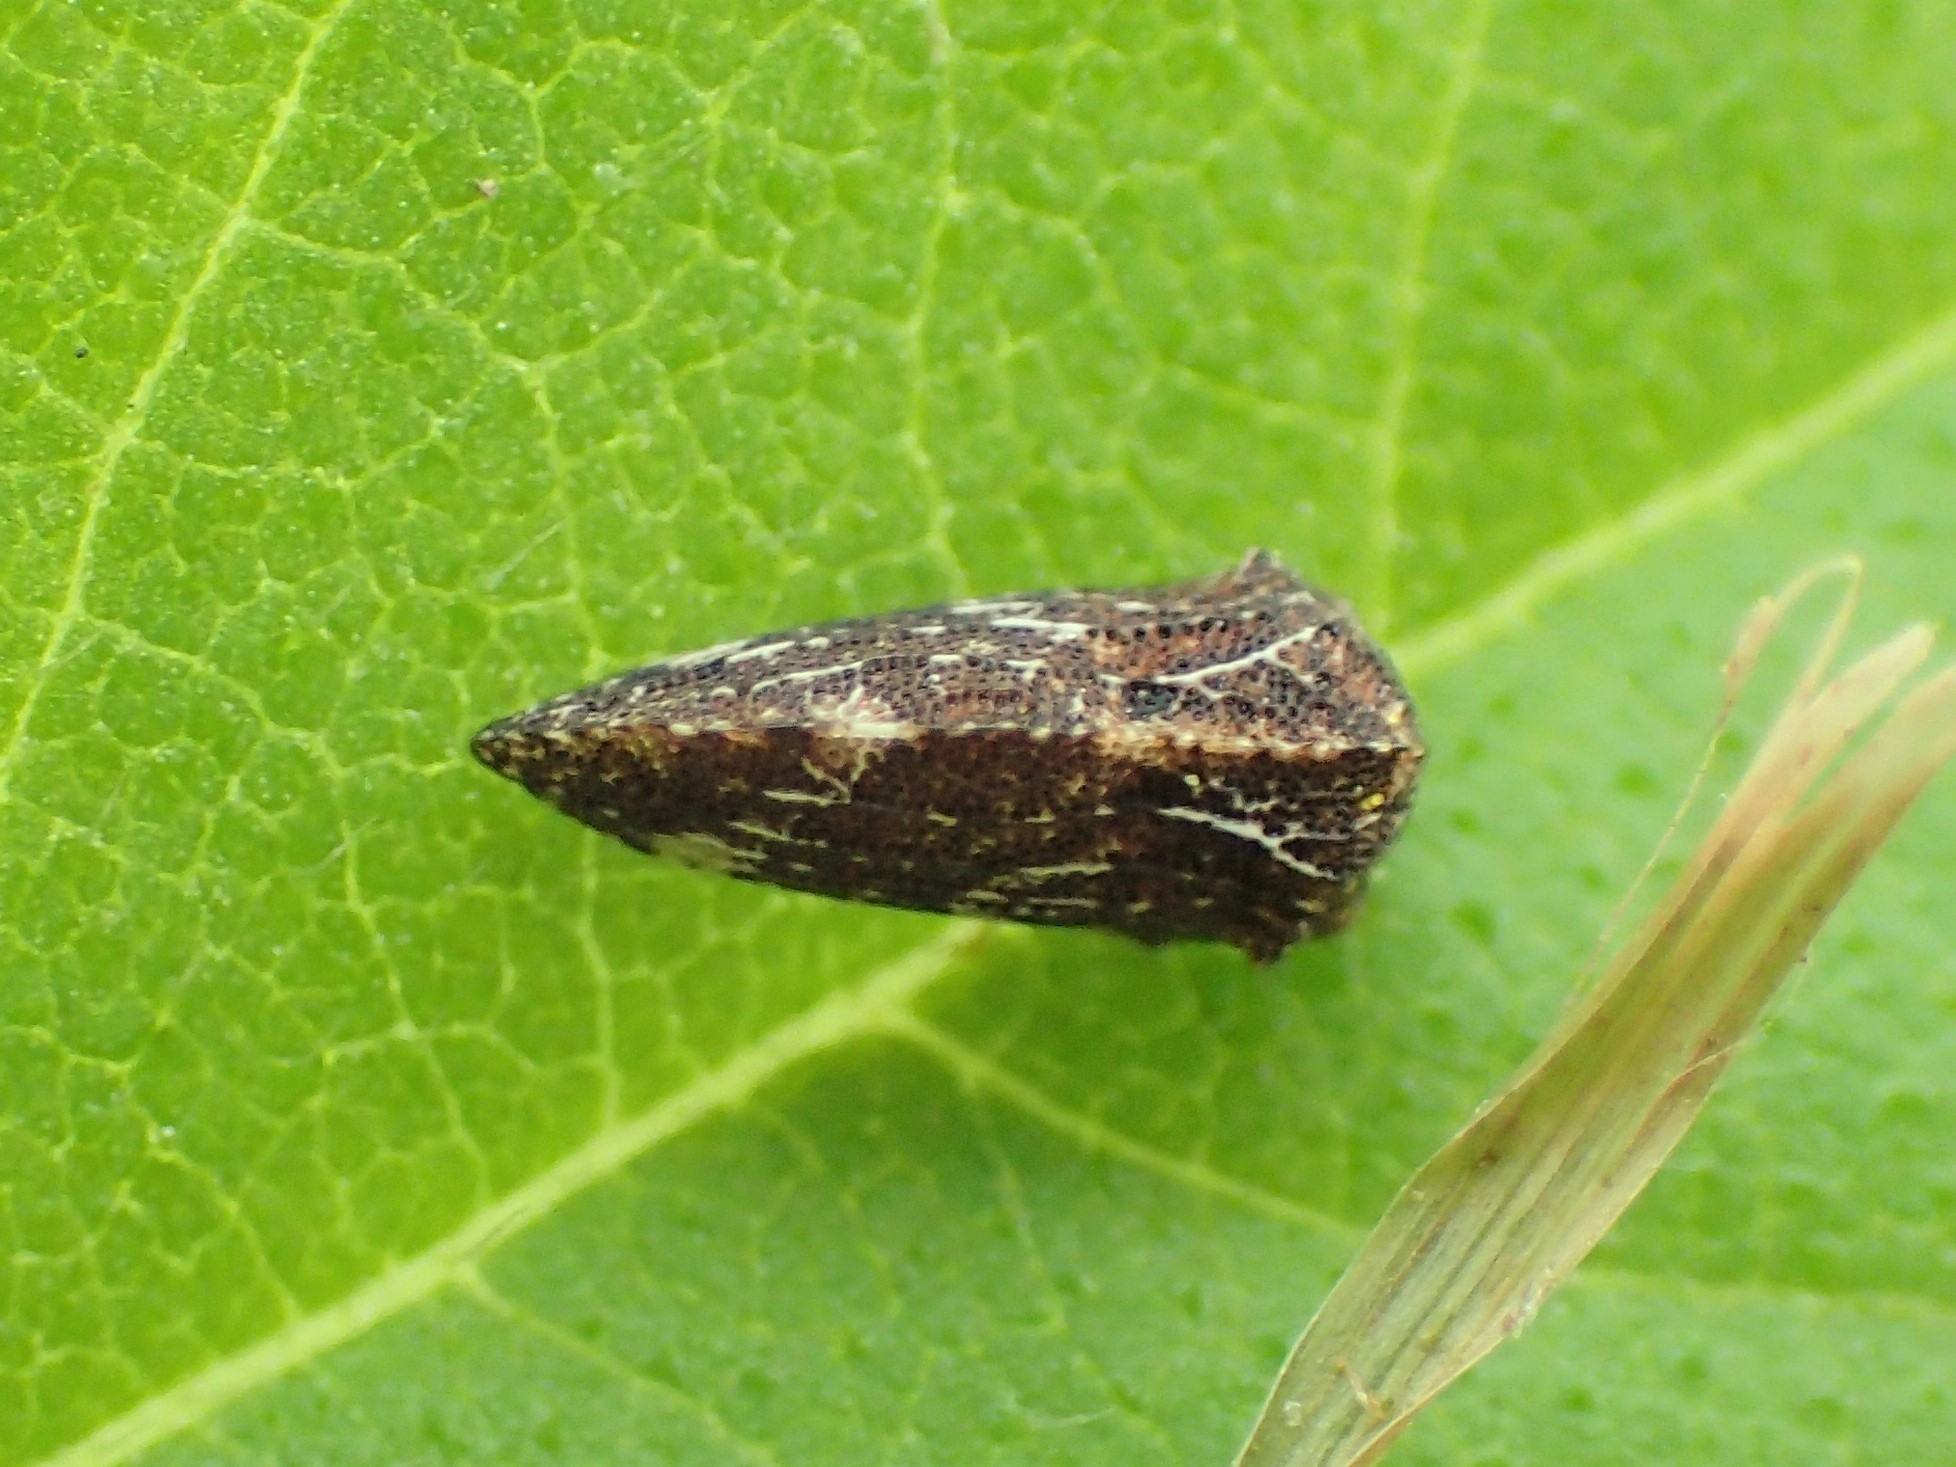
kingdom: Animalia
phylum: Arthropoda
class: Insecta
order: Hemiptera
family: Membracidae
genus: Publilia
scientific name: Publilia concava
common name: Aster treehopper
